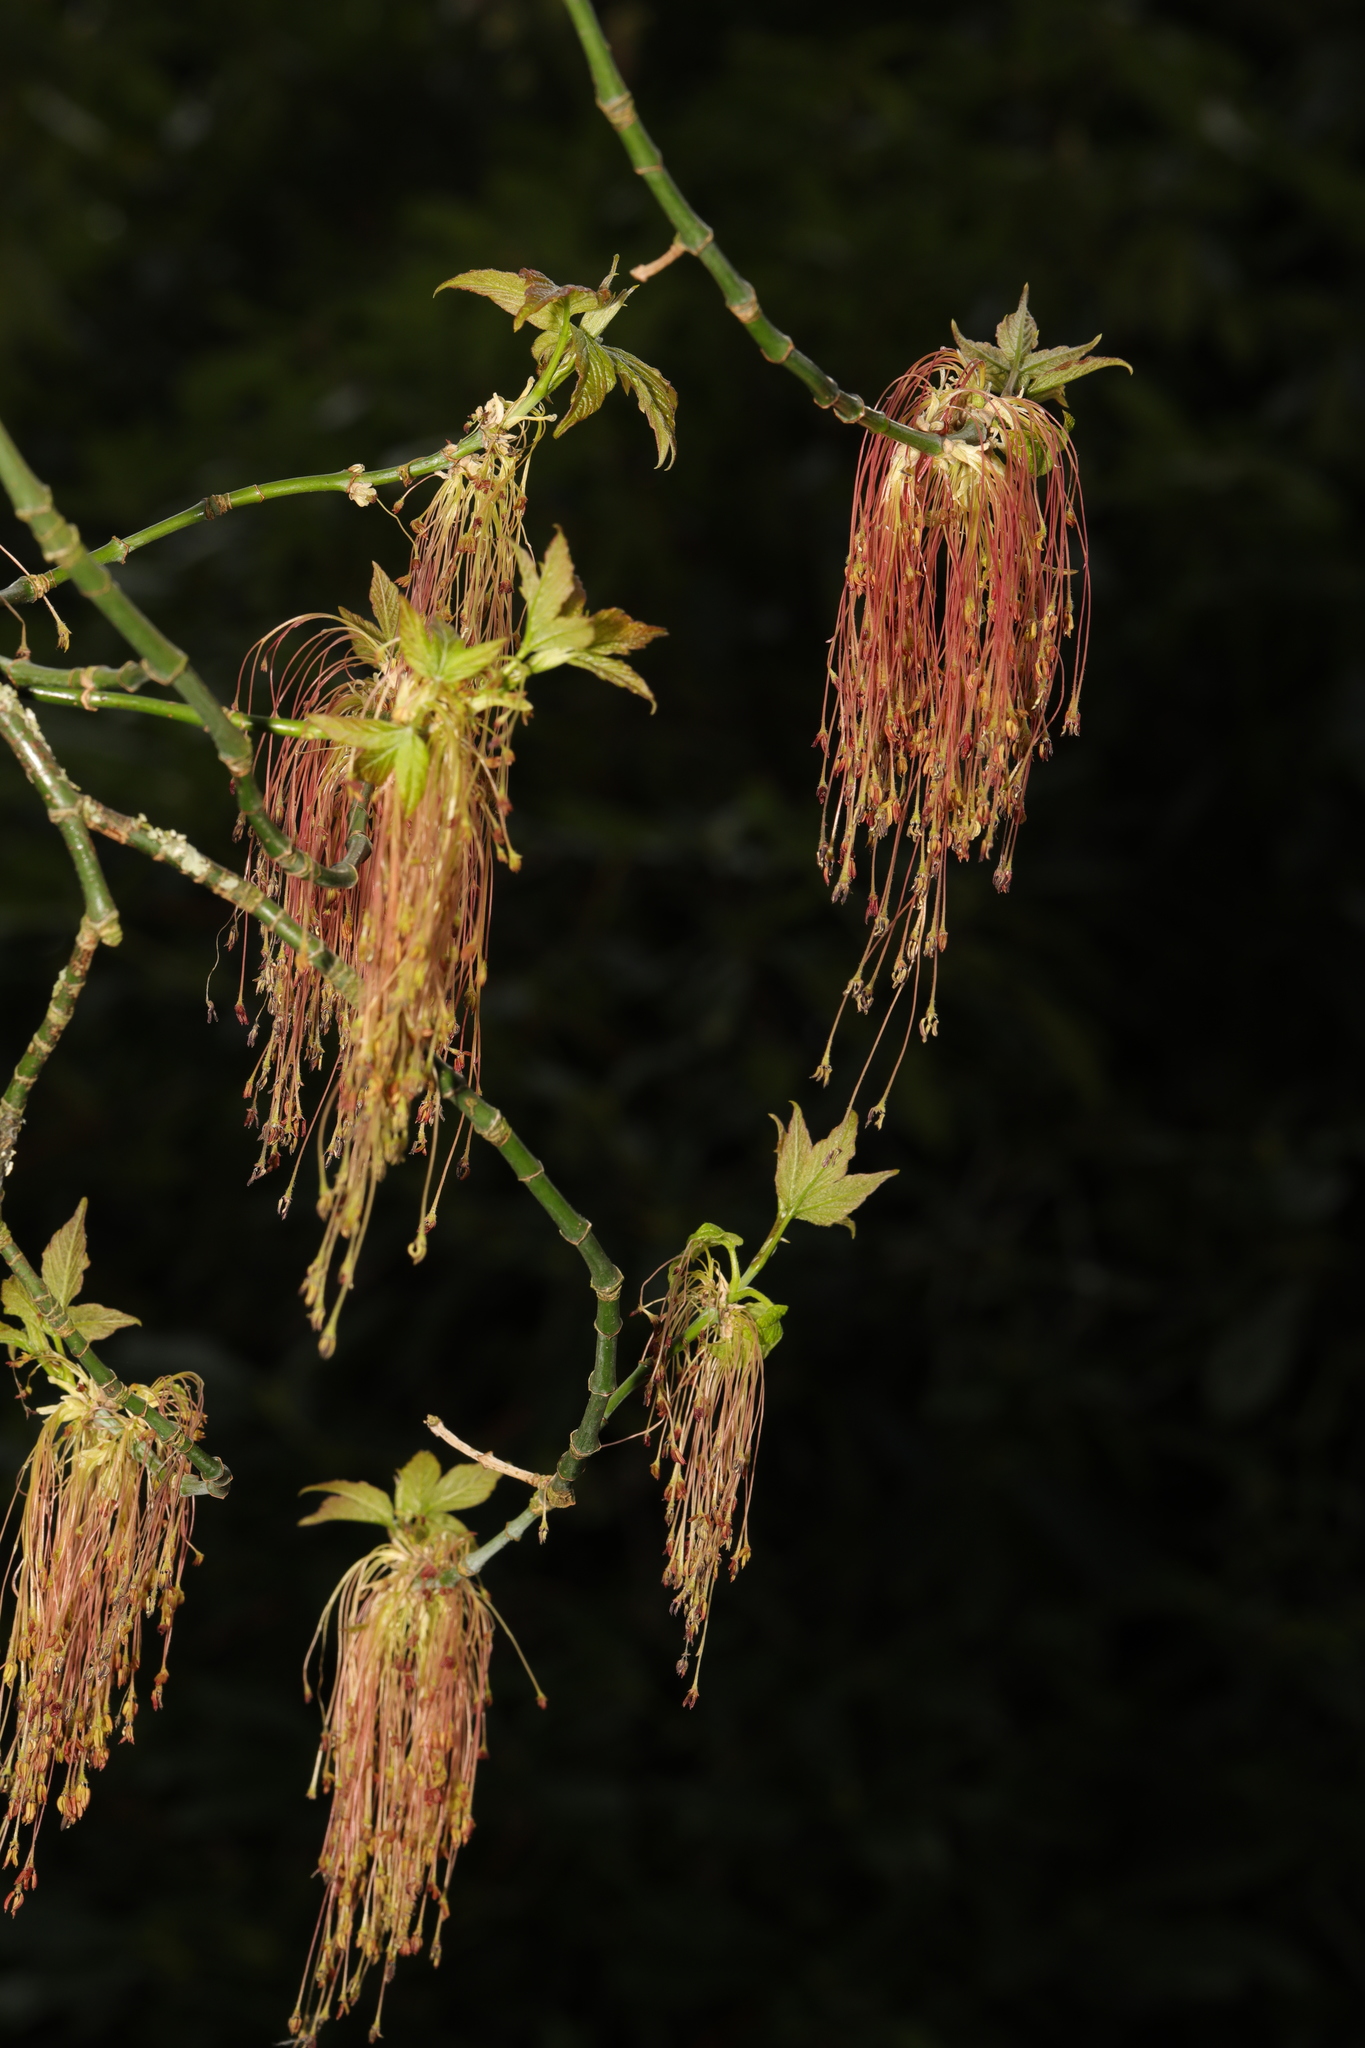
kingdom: Plantae
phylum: Tracheophyta
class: Magnoliopsida
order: Sapindales
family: Sapindaceae
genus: Acer
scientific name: Acer negundo
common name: Ashleaf maple
